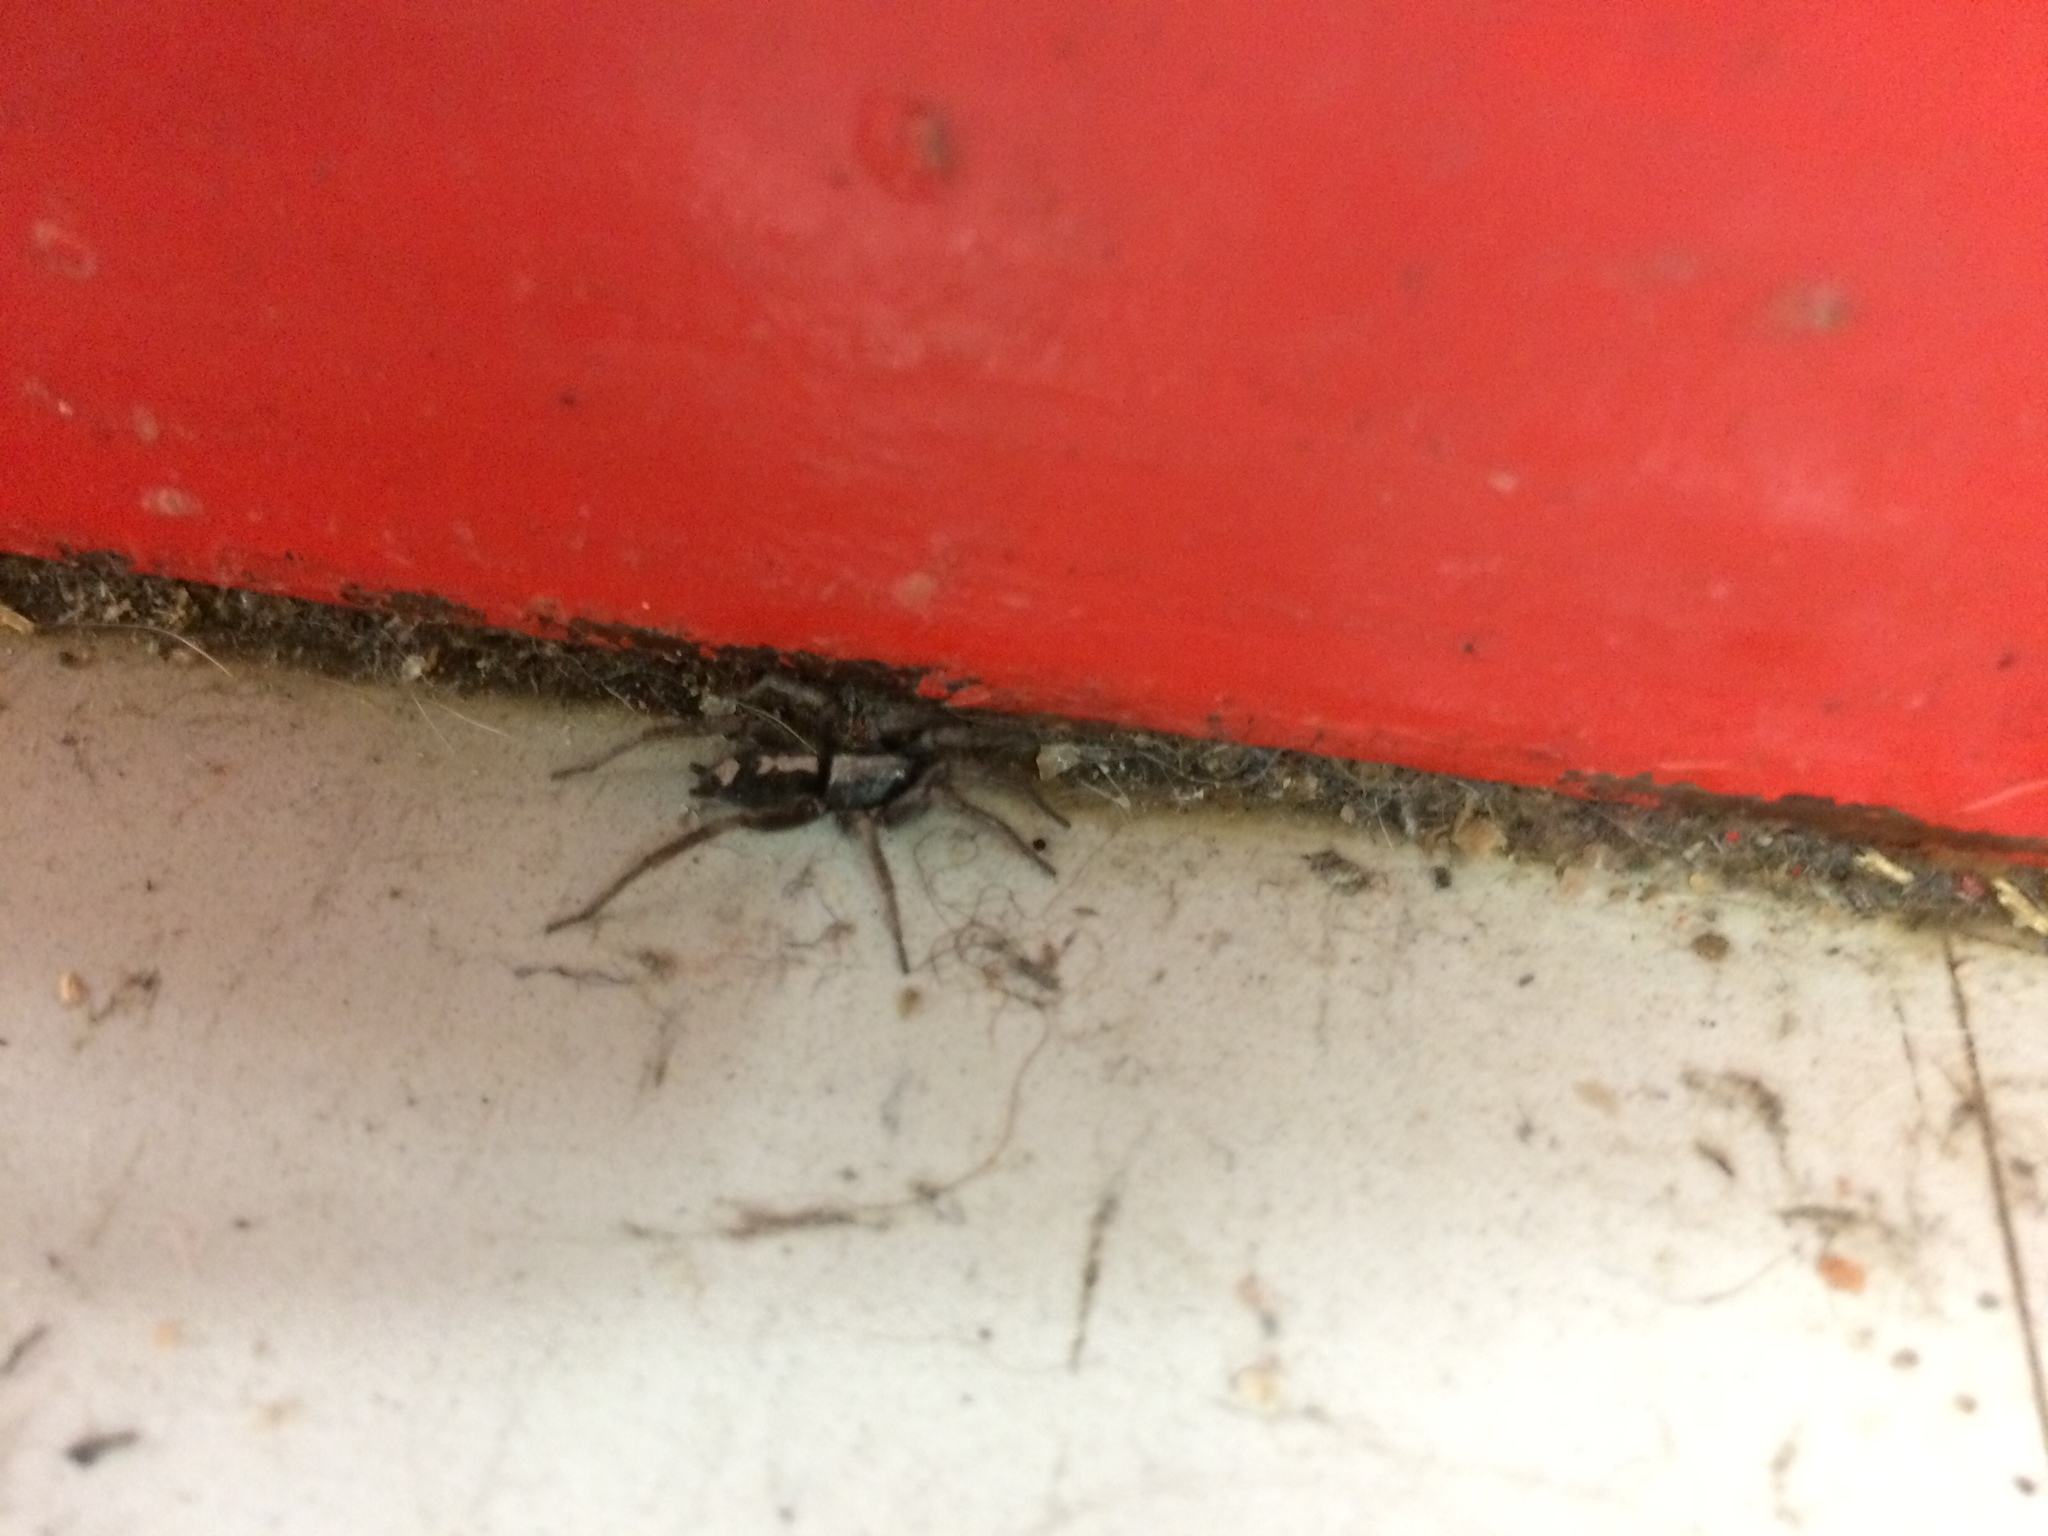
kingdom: Animalia
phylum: Arthropoda
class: Arachnida
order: Araneae
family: Gnaphosidae
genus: Herpyllus
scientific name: Herpyllus ecclesiasticus
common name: Eastern parson spider
